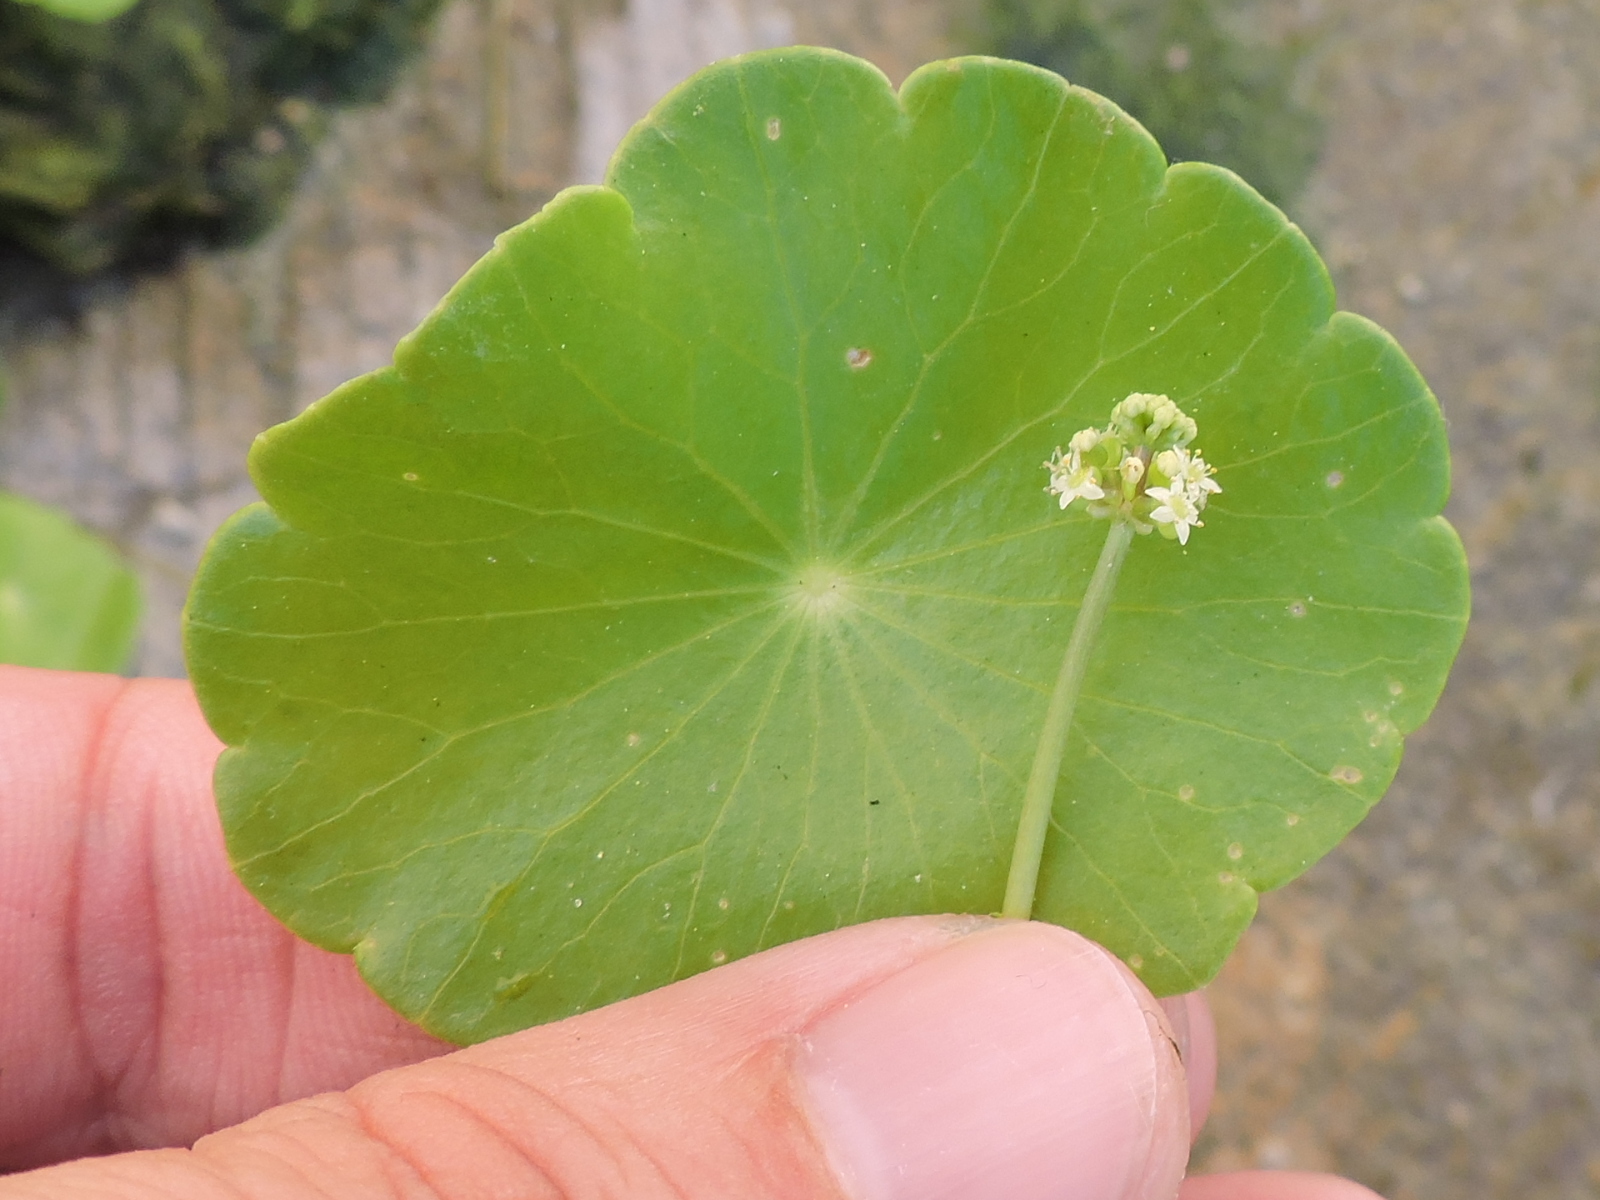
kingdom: Plantae
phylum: Tracheophyta
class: Magnoliopsida
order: Apiales
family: Araliaceae
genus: Hydrocotyle
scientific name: Hydrocotyle verticillata
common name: Whorled marshpennywort
